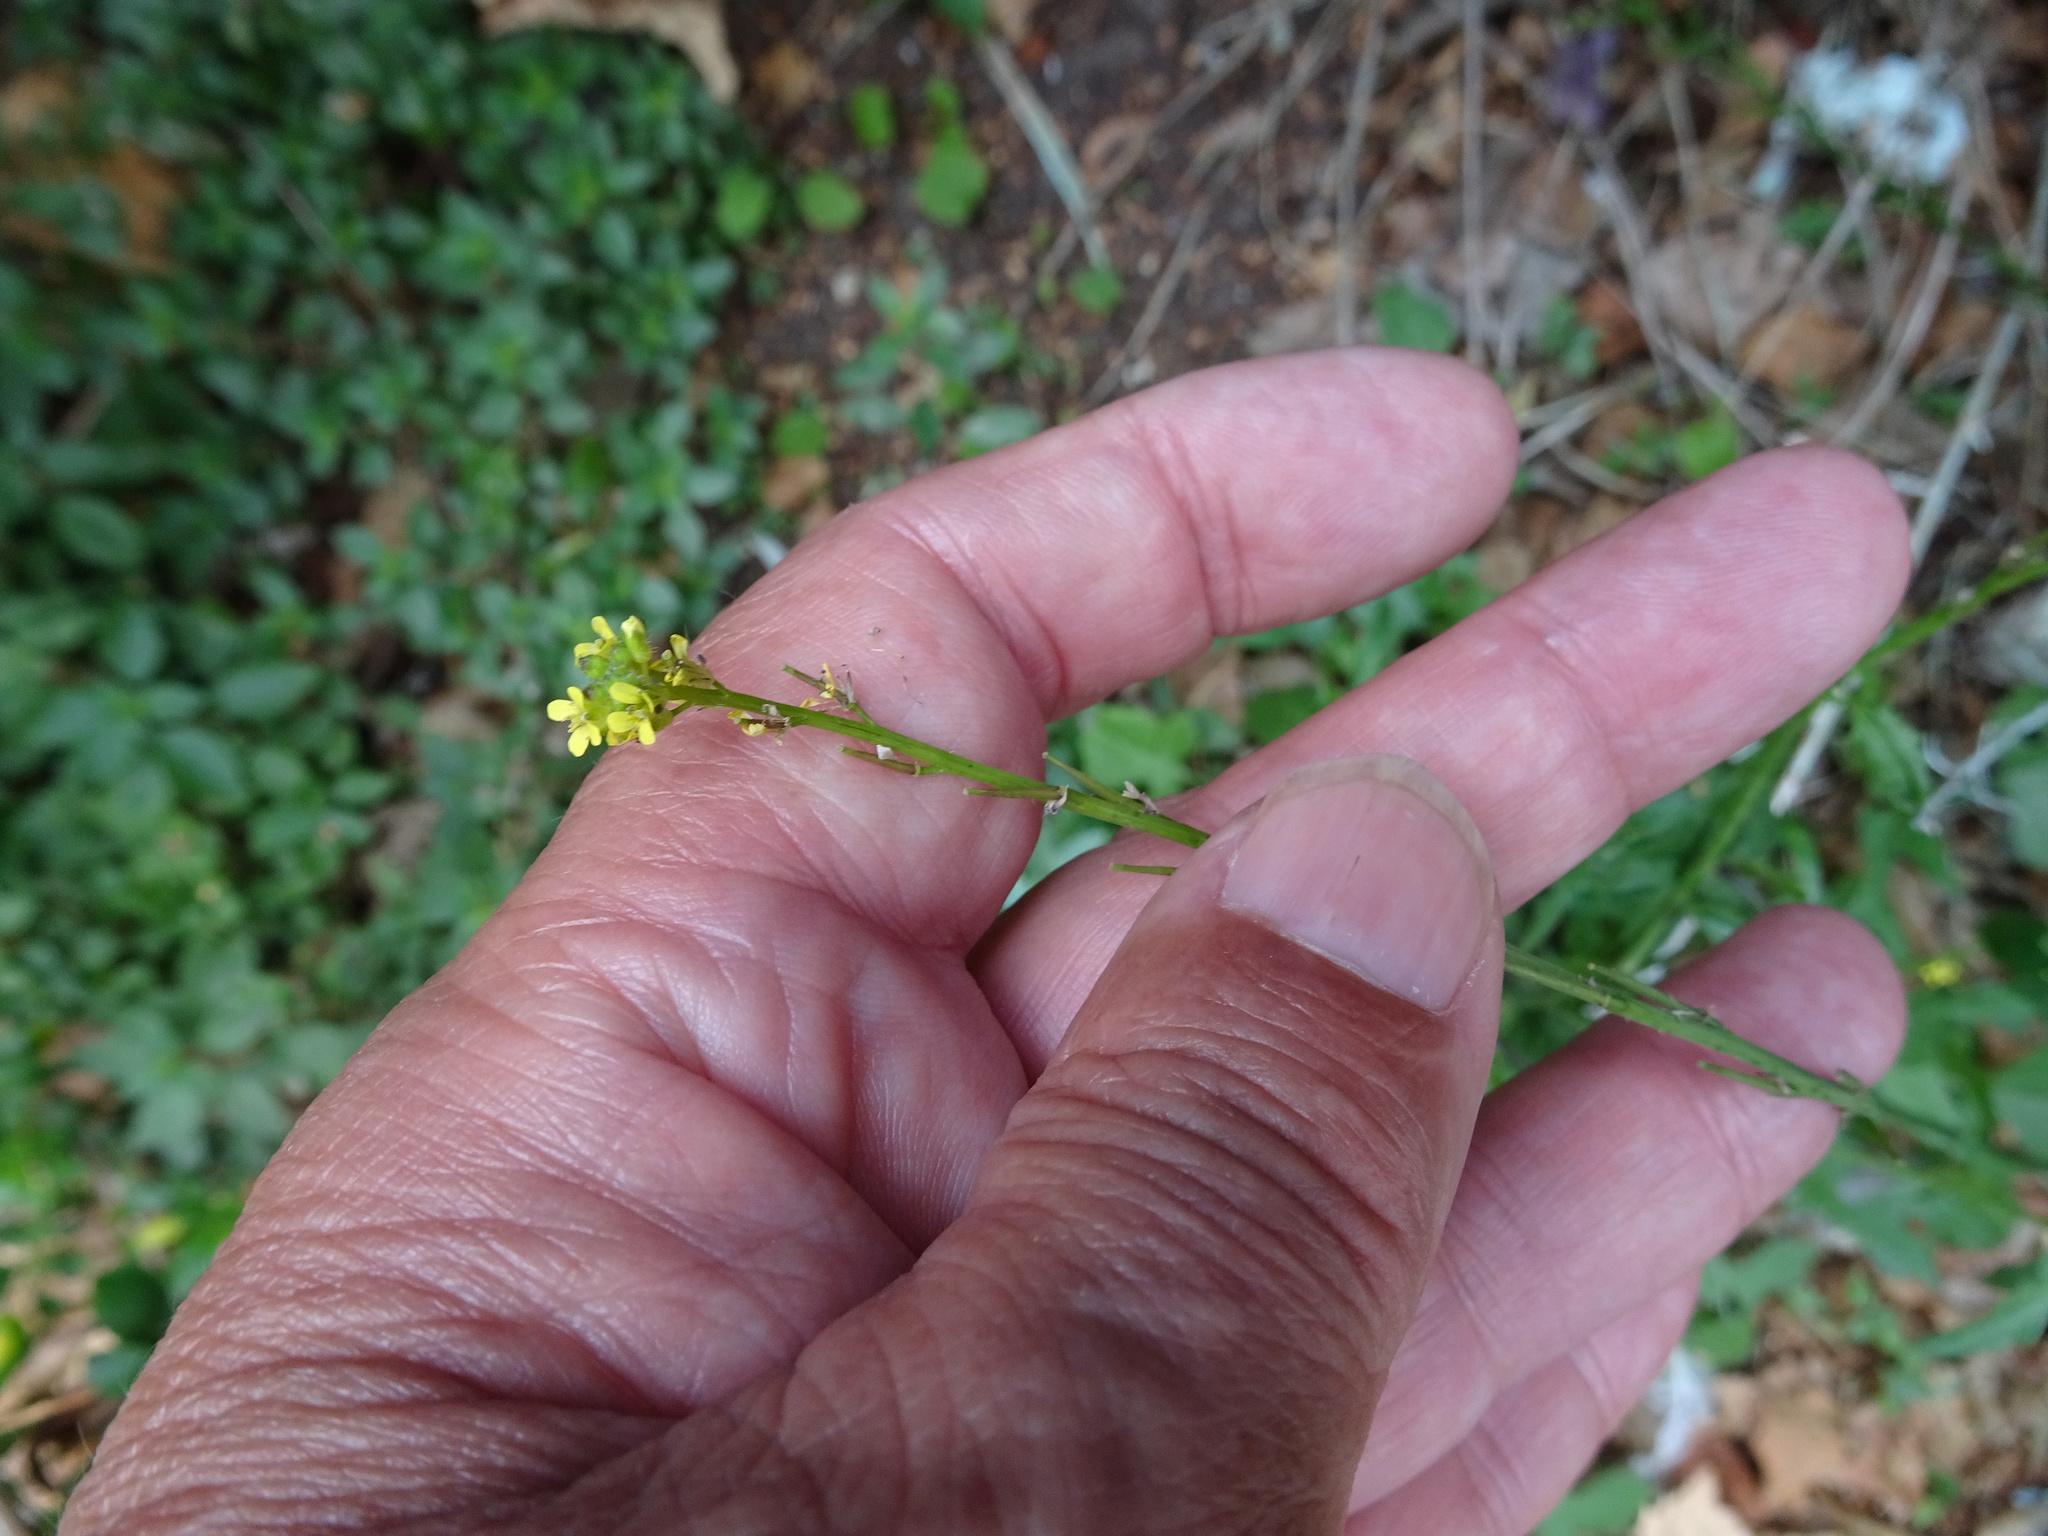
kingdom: Plantae
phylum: Tracheophyta
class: Magnoliopsida
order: Brassicales
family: Brassicaceae
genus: Sisymbrium
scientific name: Sisymbrium officinale
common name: Hedge mustard
